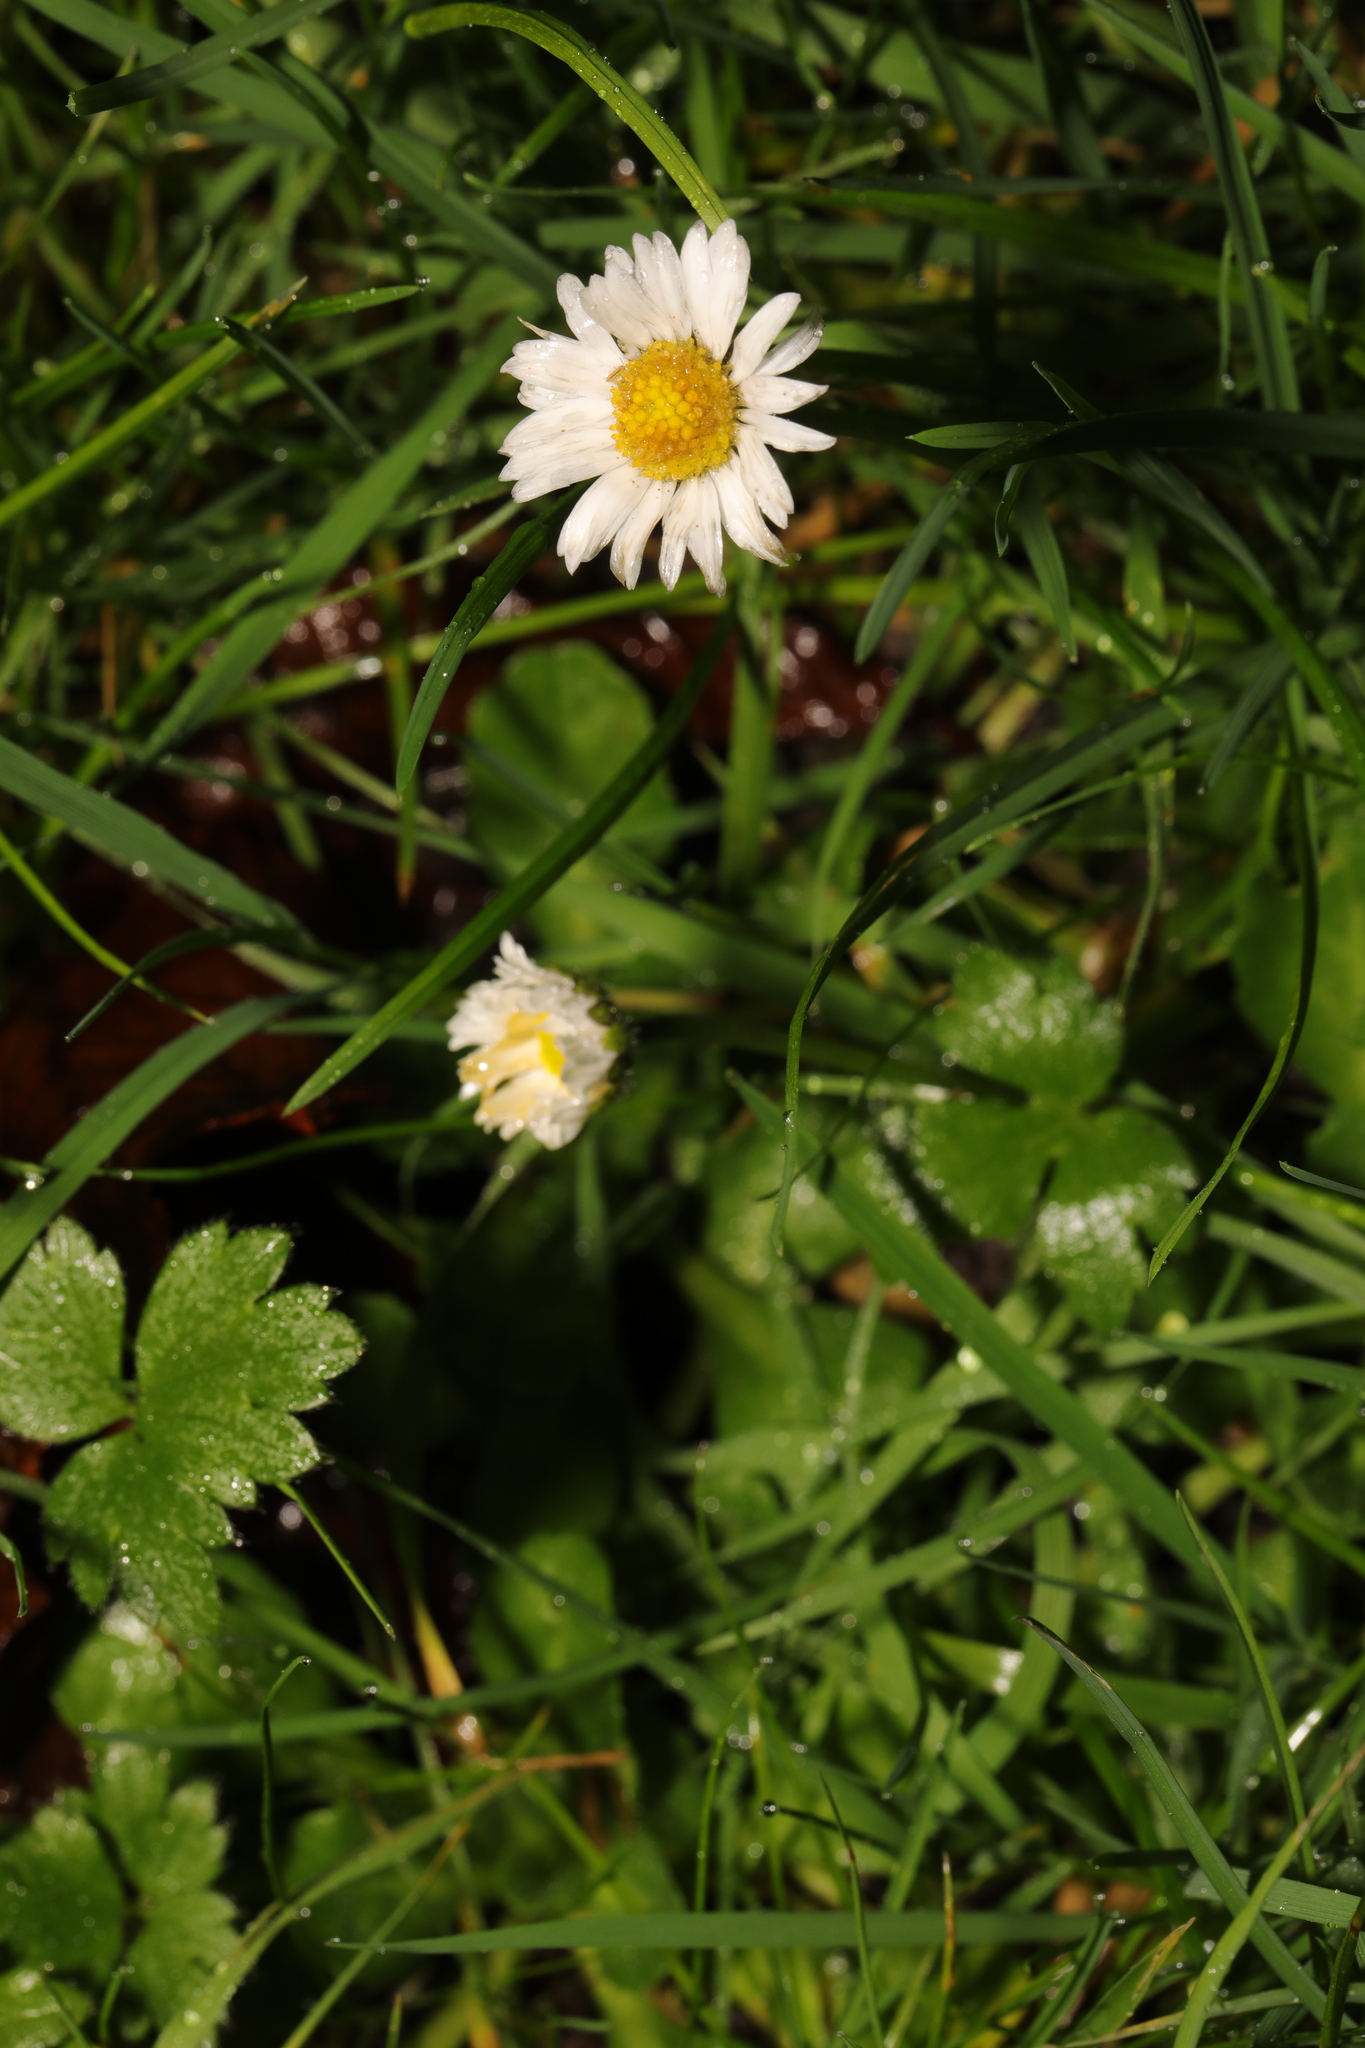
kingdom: Plantae
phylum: Tracheophyta
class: Magnoliopsida
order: Asterales
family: Asteraceae
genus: Bellis
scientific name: Bellis perennis
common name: Lawndaisy
